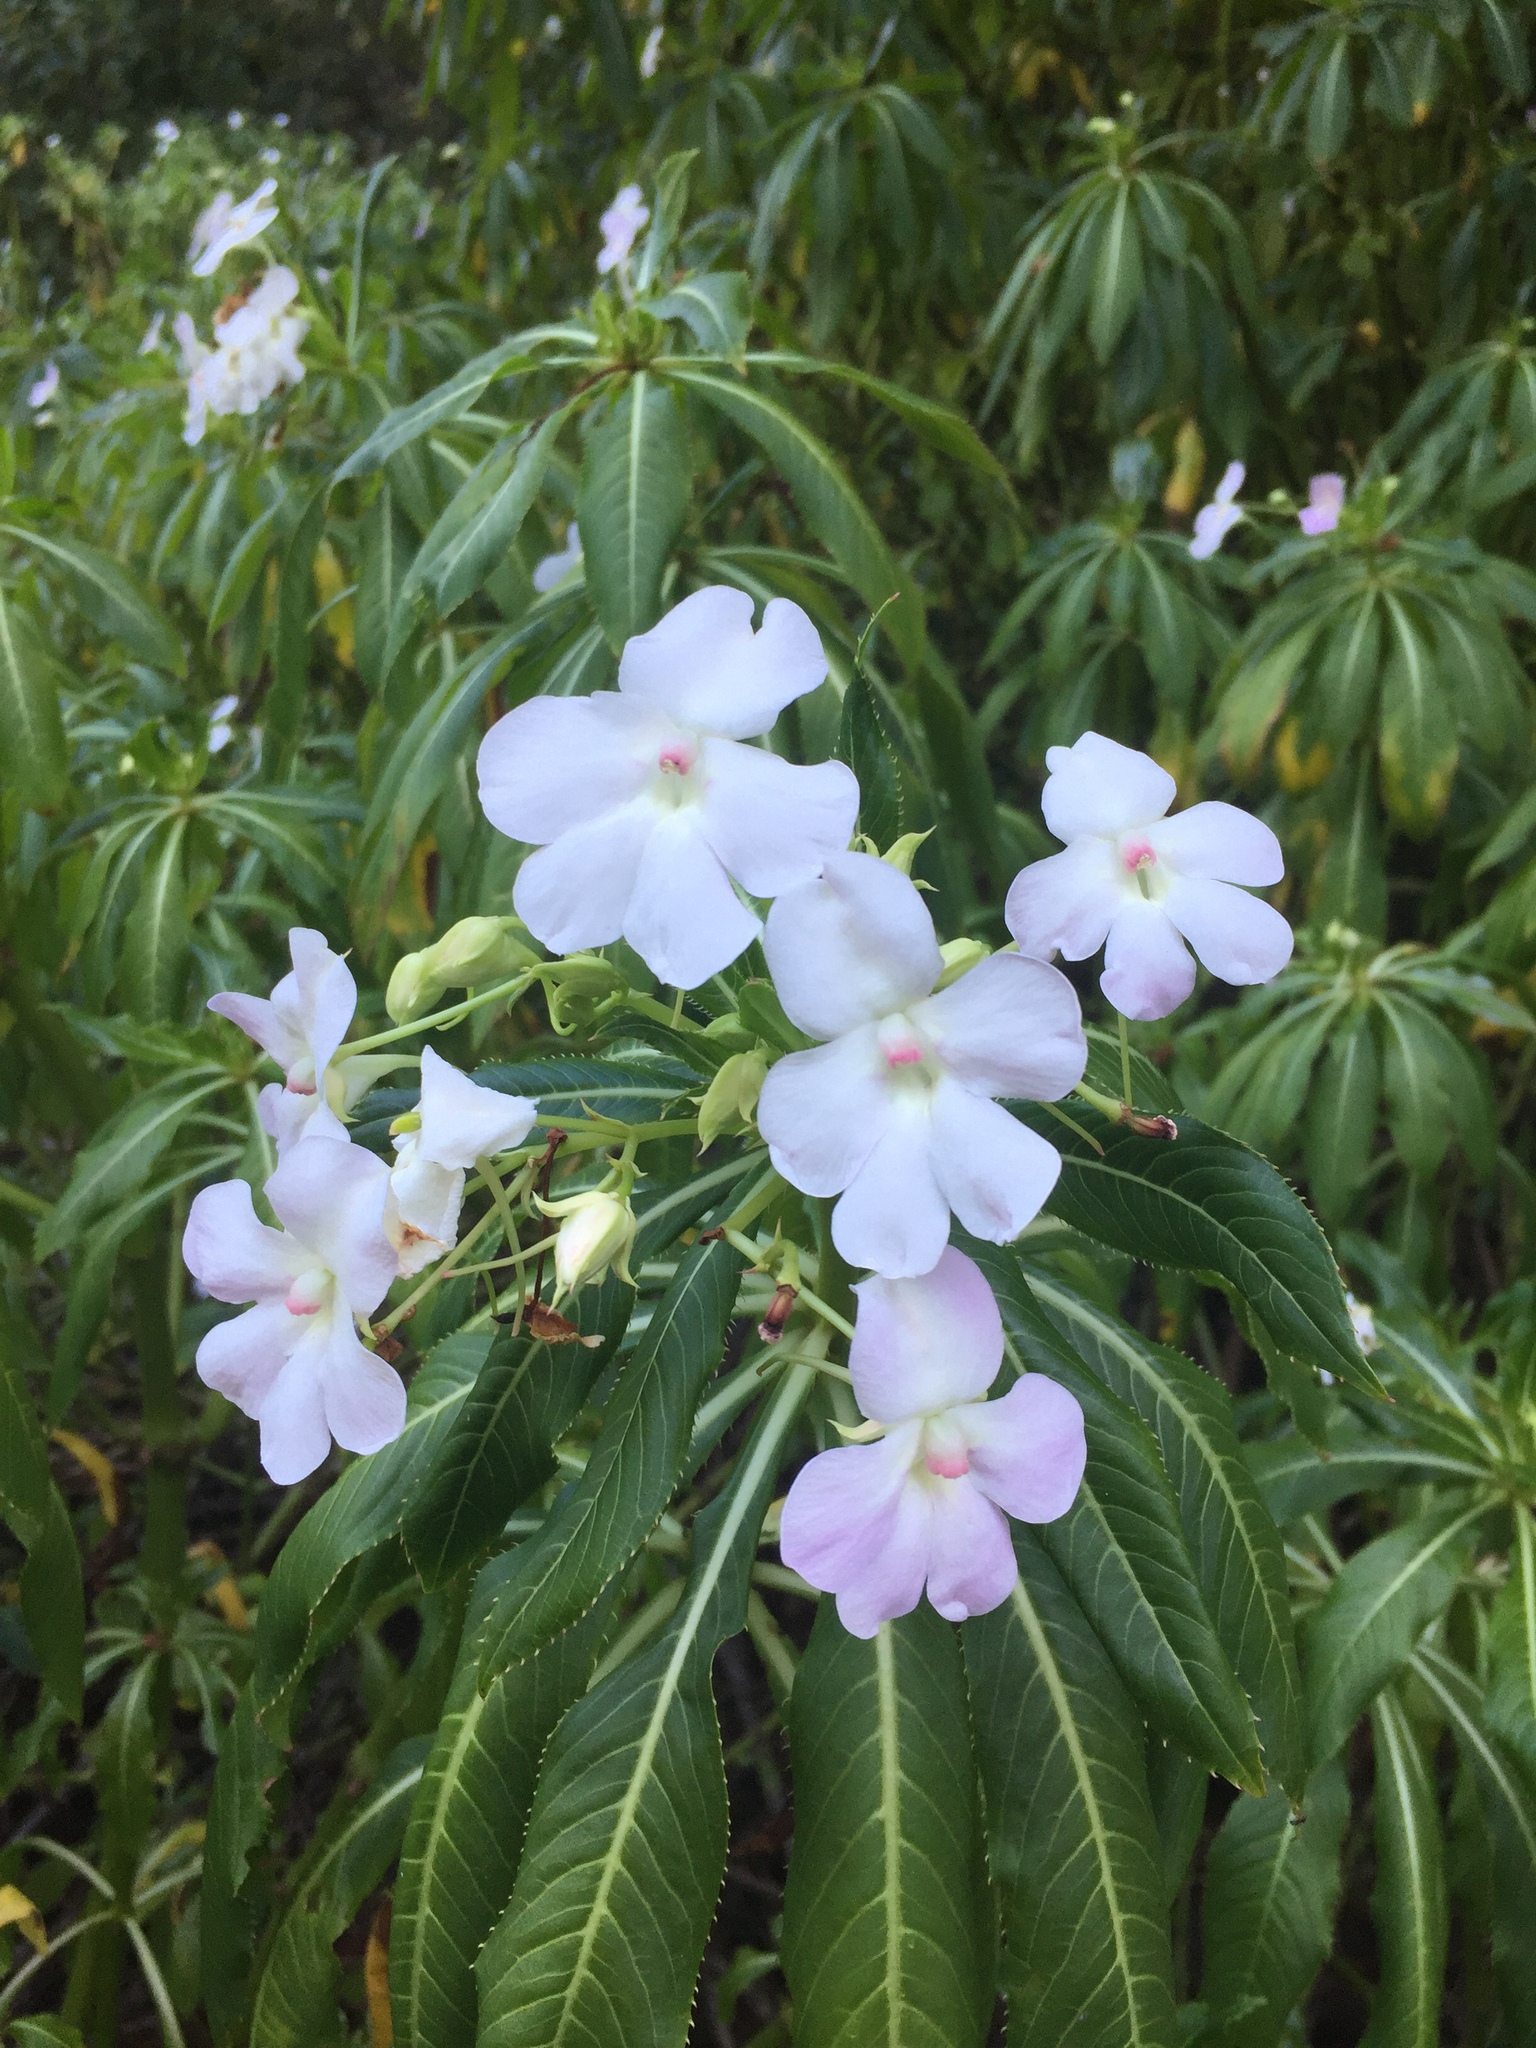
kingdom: Plantae
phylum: Tracheophyta
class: Magnoliopsida
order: Ericales
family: Balsaminaceae
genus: Impatiens
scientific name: Impatiens sodenii
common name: Oliver's touch-me-not
